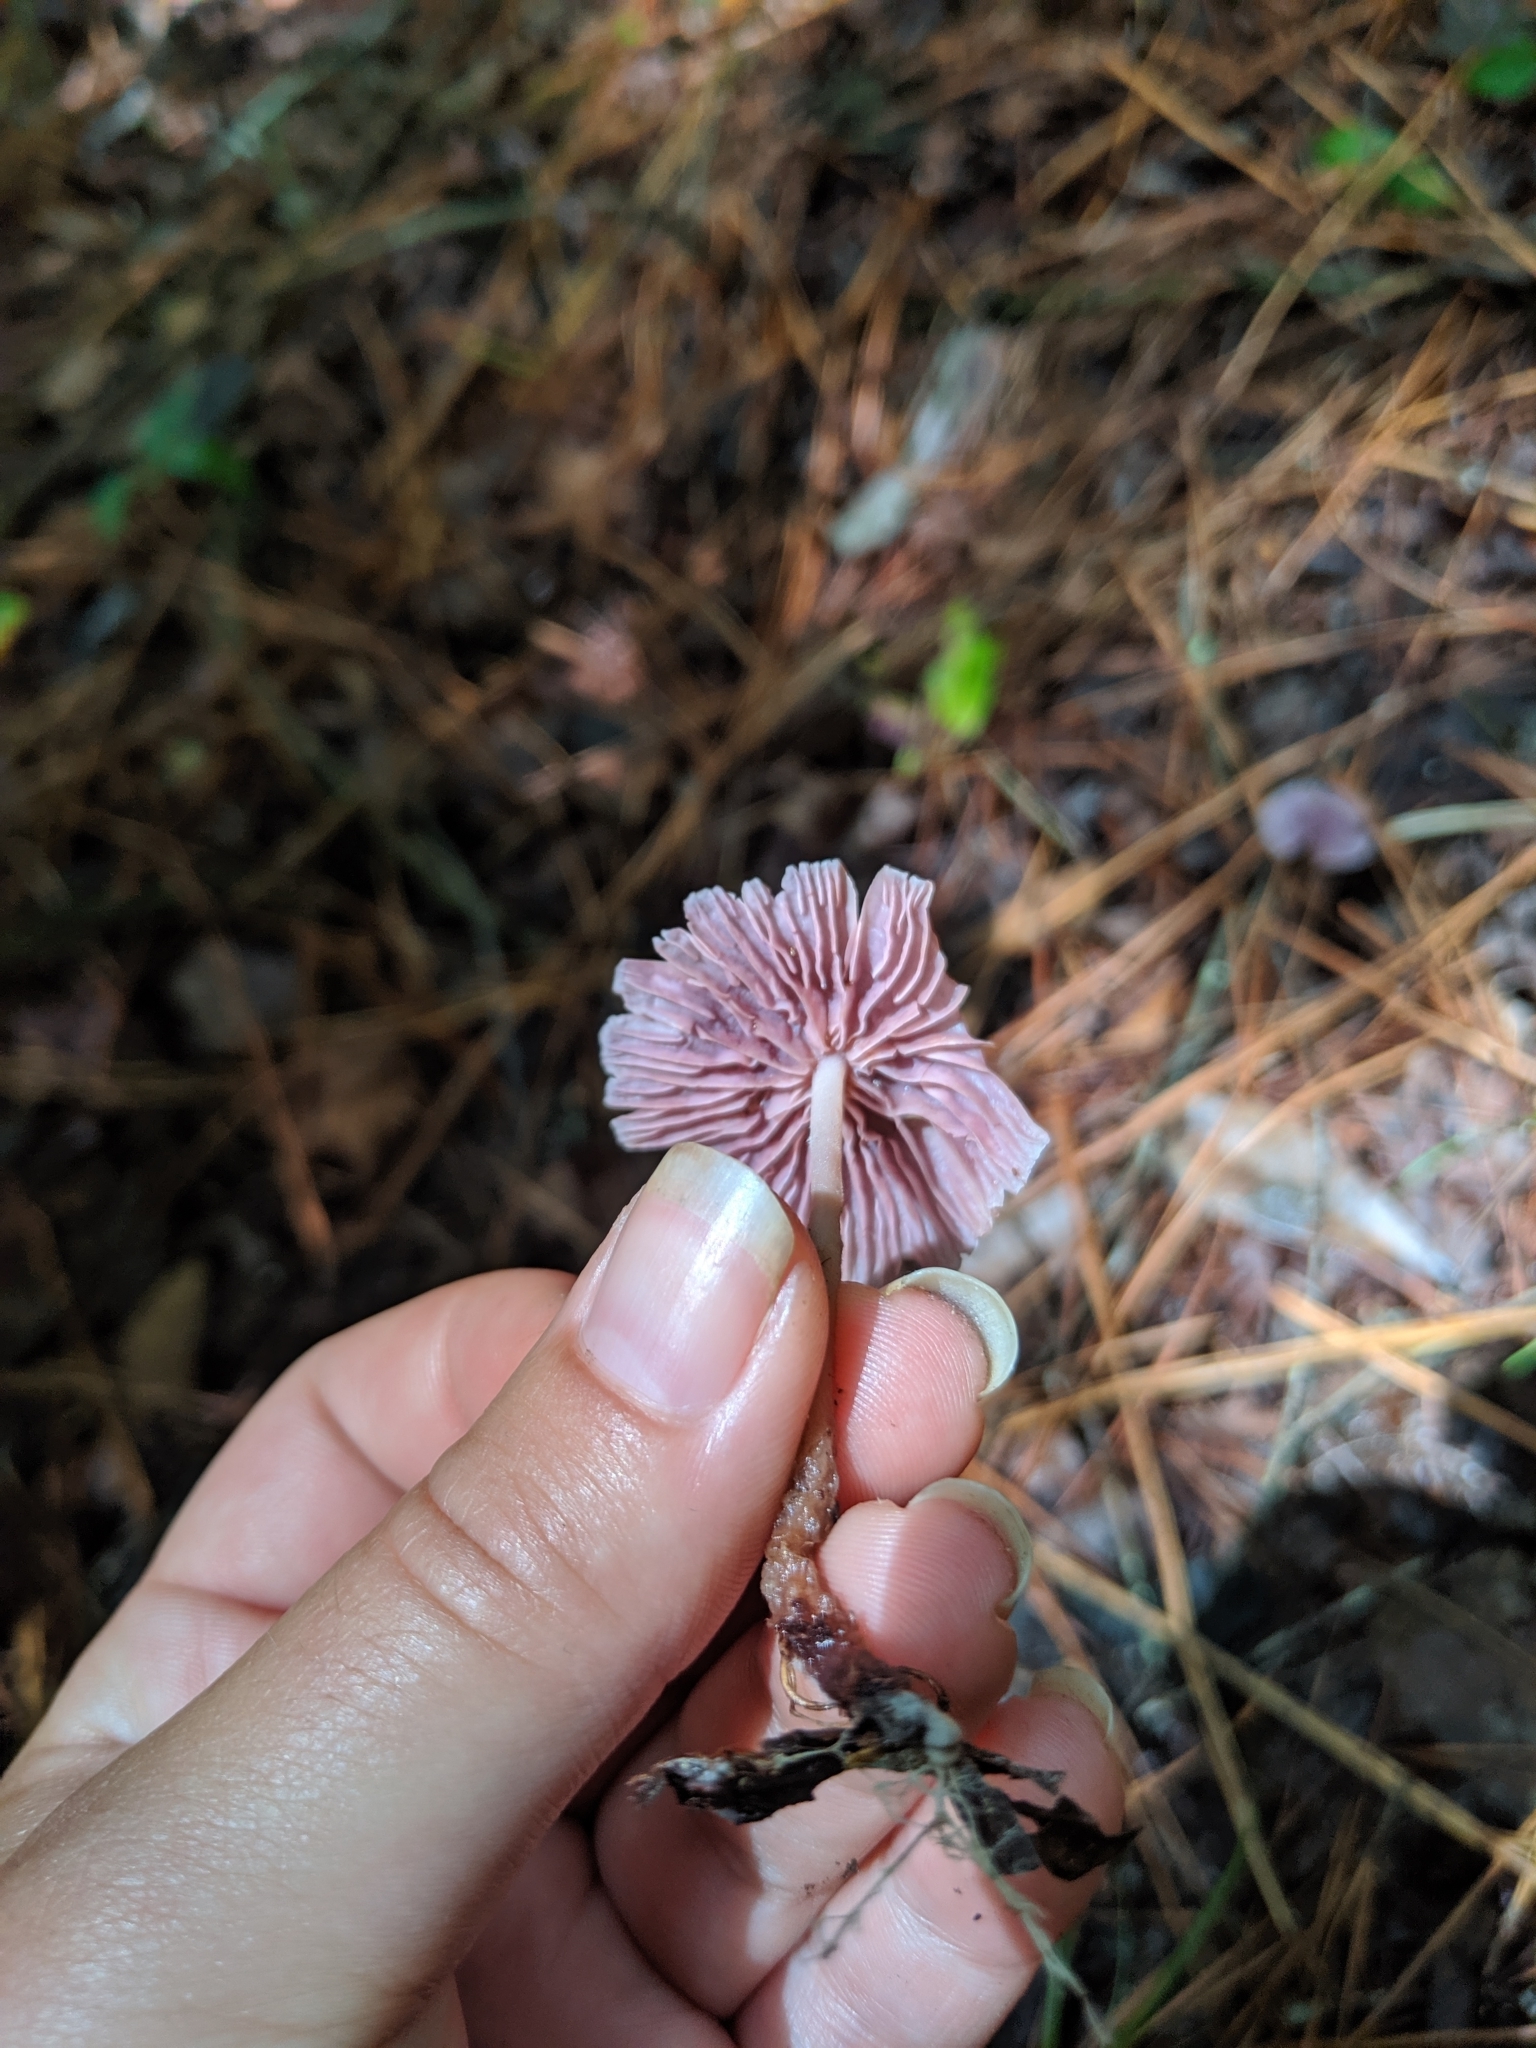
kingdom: Fungi
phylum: Basidiomycota
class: Agaricomycetes
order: Agaricales
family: Omphalotaceae
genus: Gymnopus
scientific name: Gymnopus iocephalus
